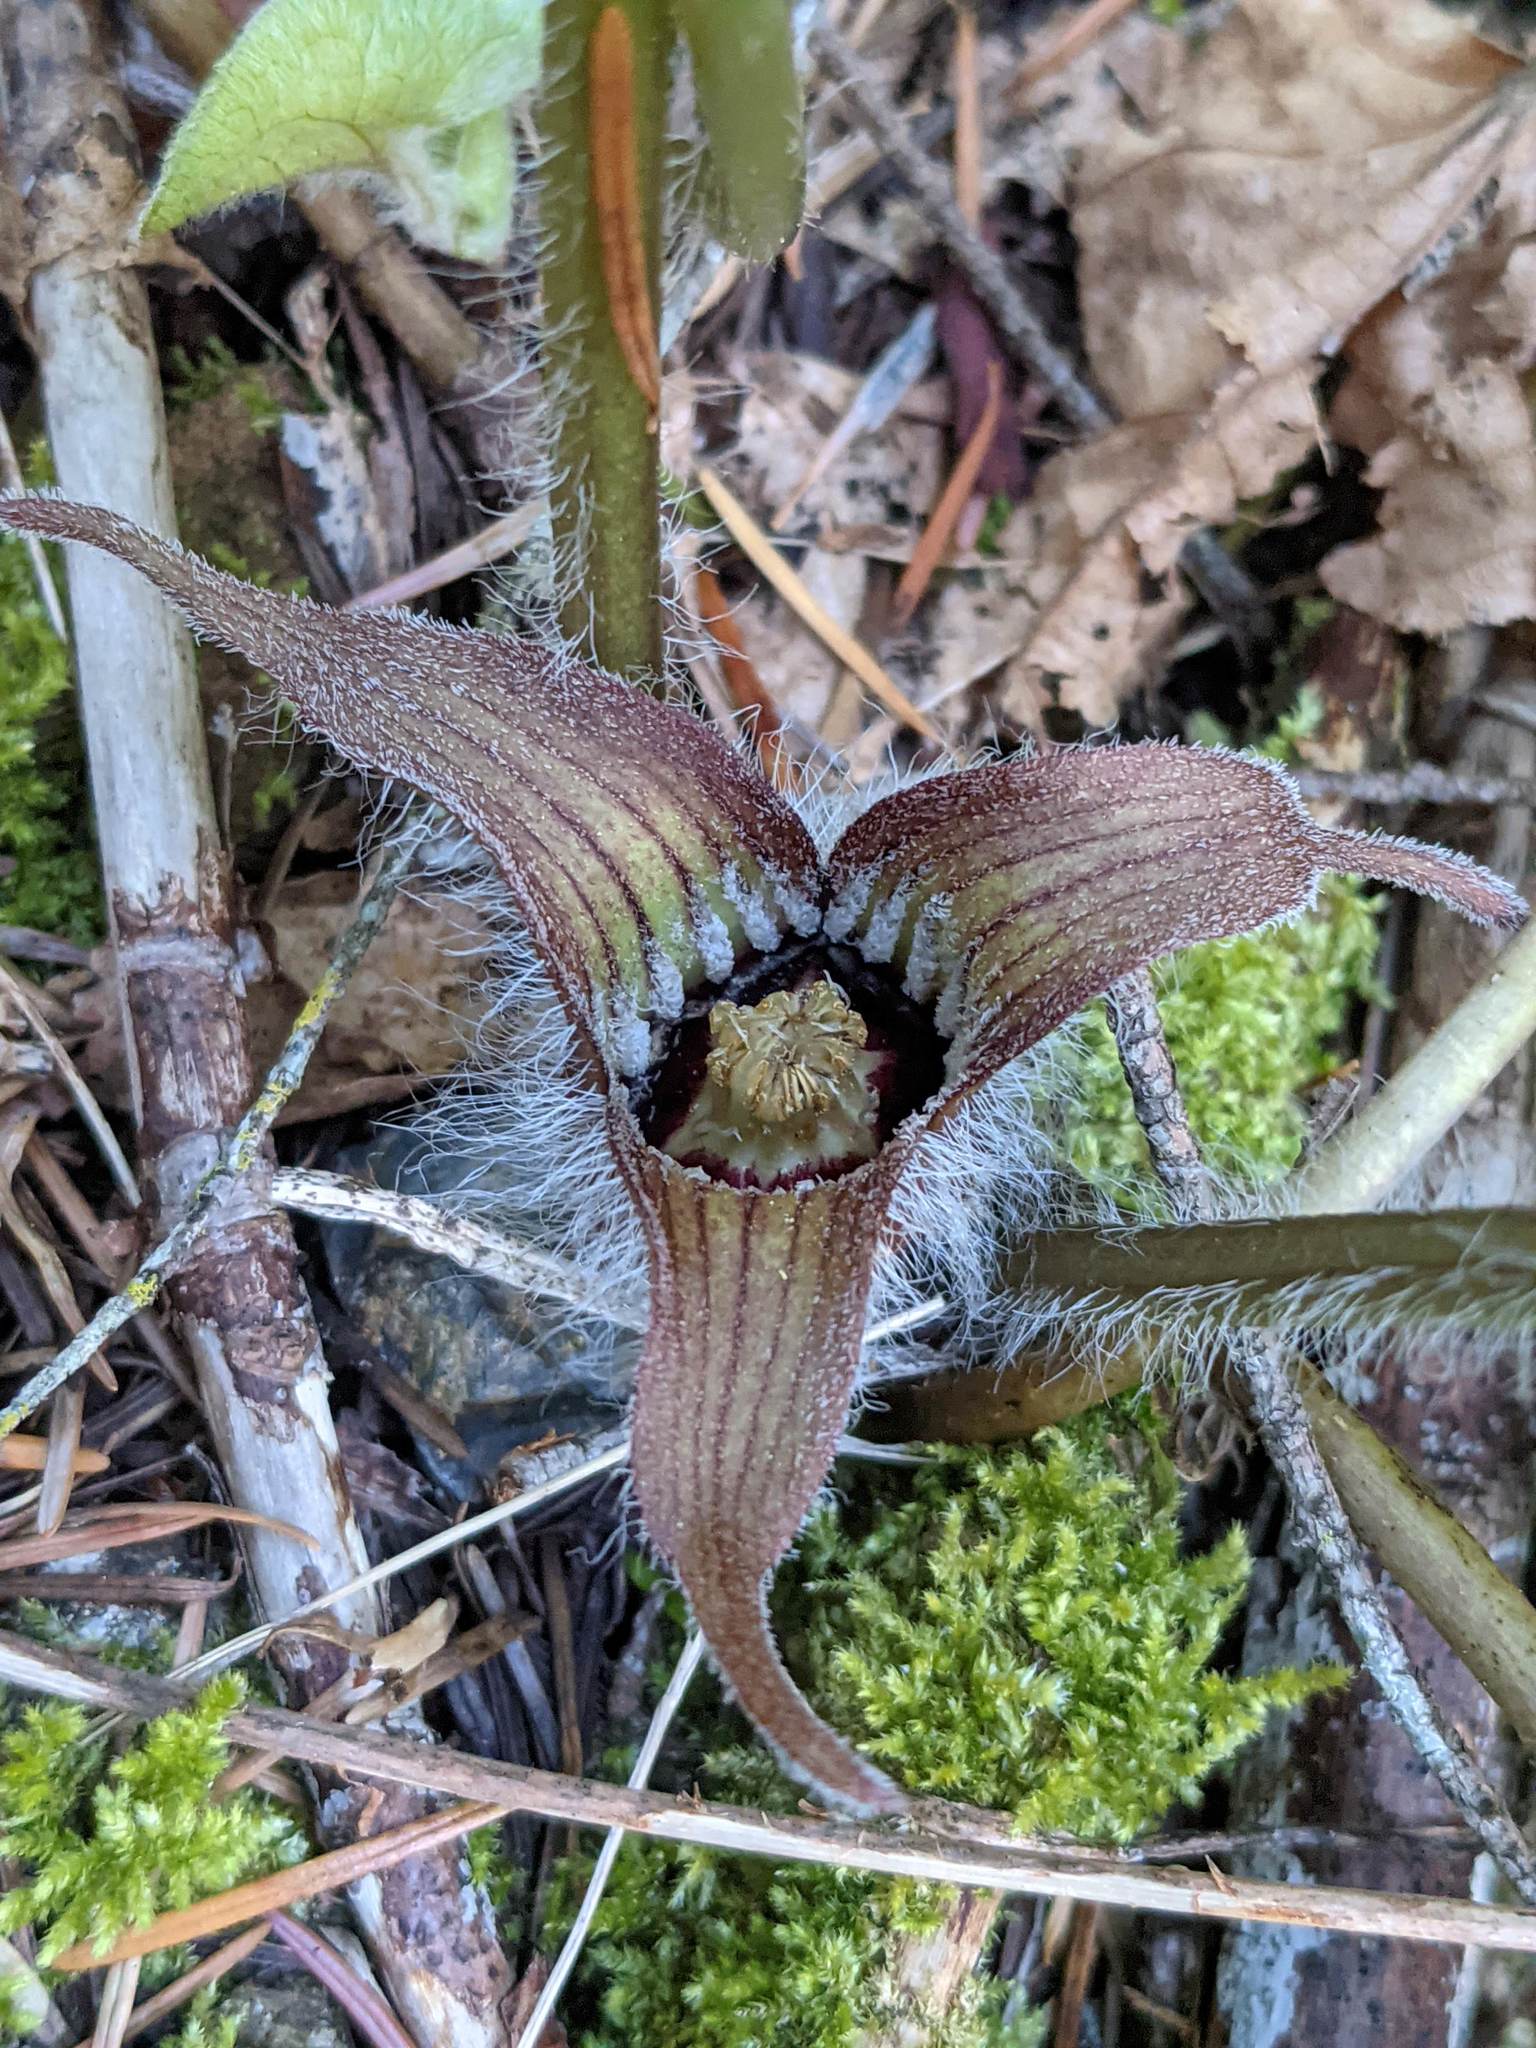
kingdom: Plantae
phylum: Tracheophyta
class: Magnoliopsida
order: Piperales
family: Aristolochiaceae
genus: Asarum
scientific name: Asarum hartwegii
